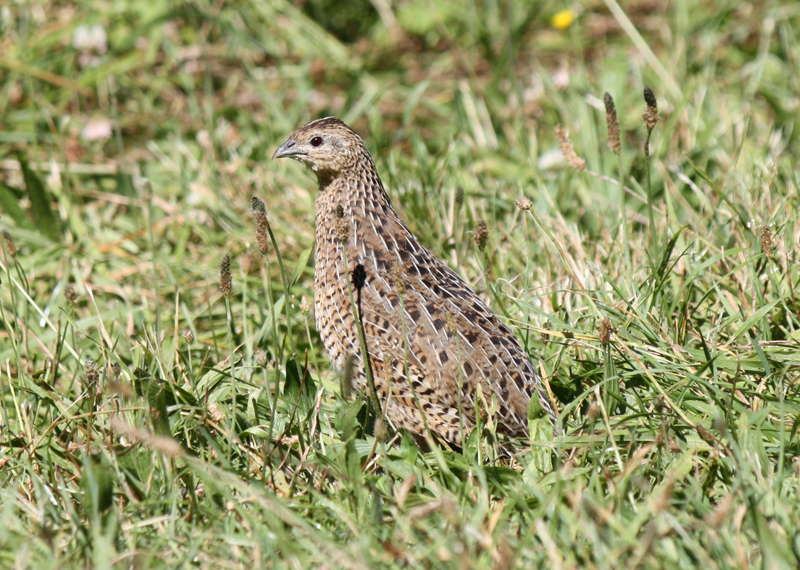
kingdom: Animalia
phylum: Chordata
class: Aves
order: Galliformes
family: Phasianidae
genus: Synoicus
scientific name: Synoicus ypsilophorus
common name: Brown quail
